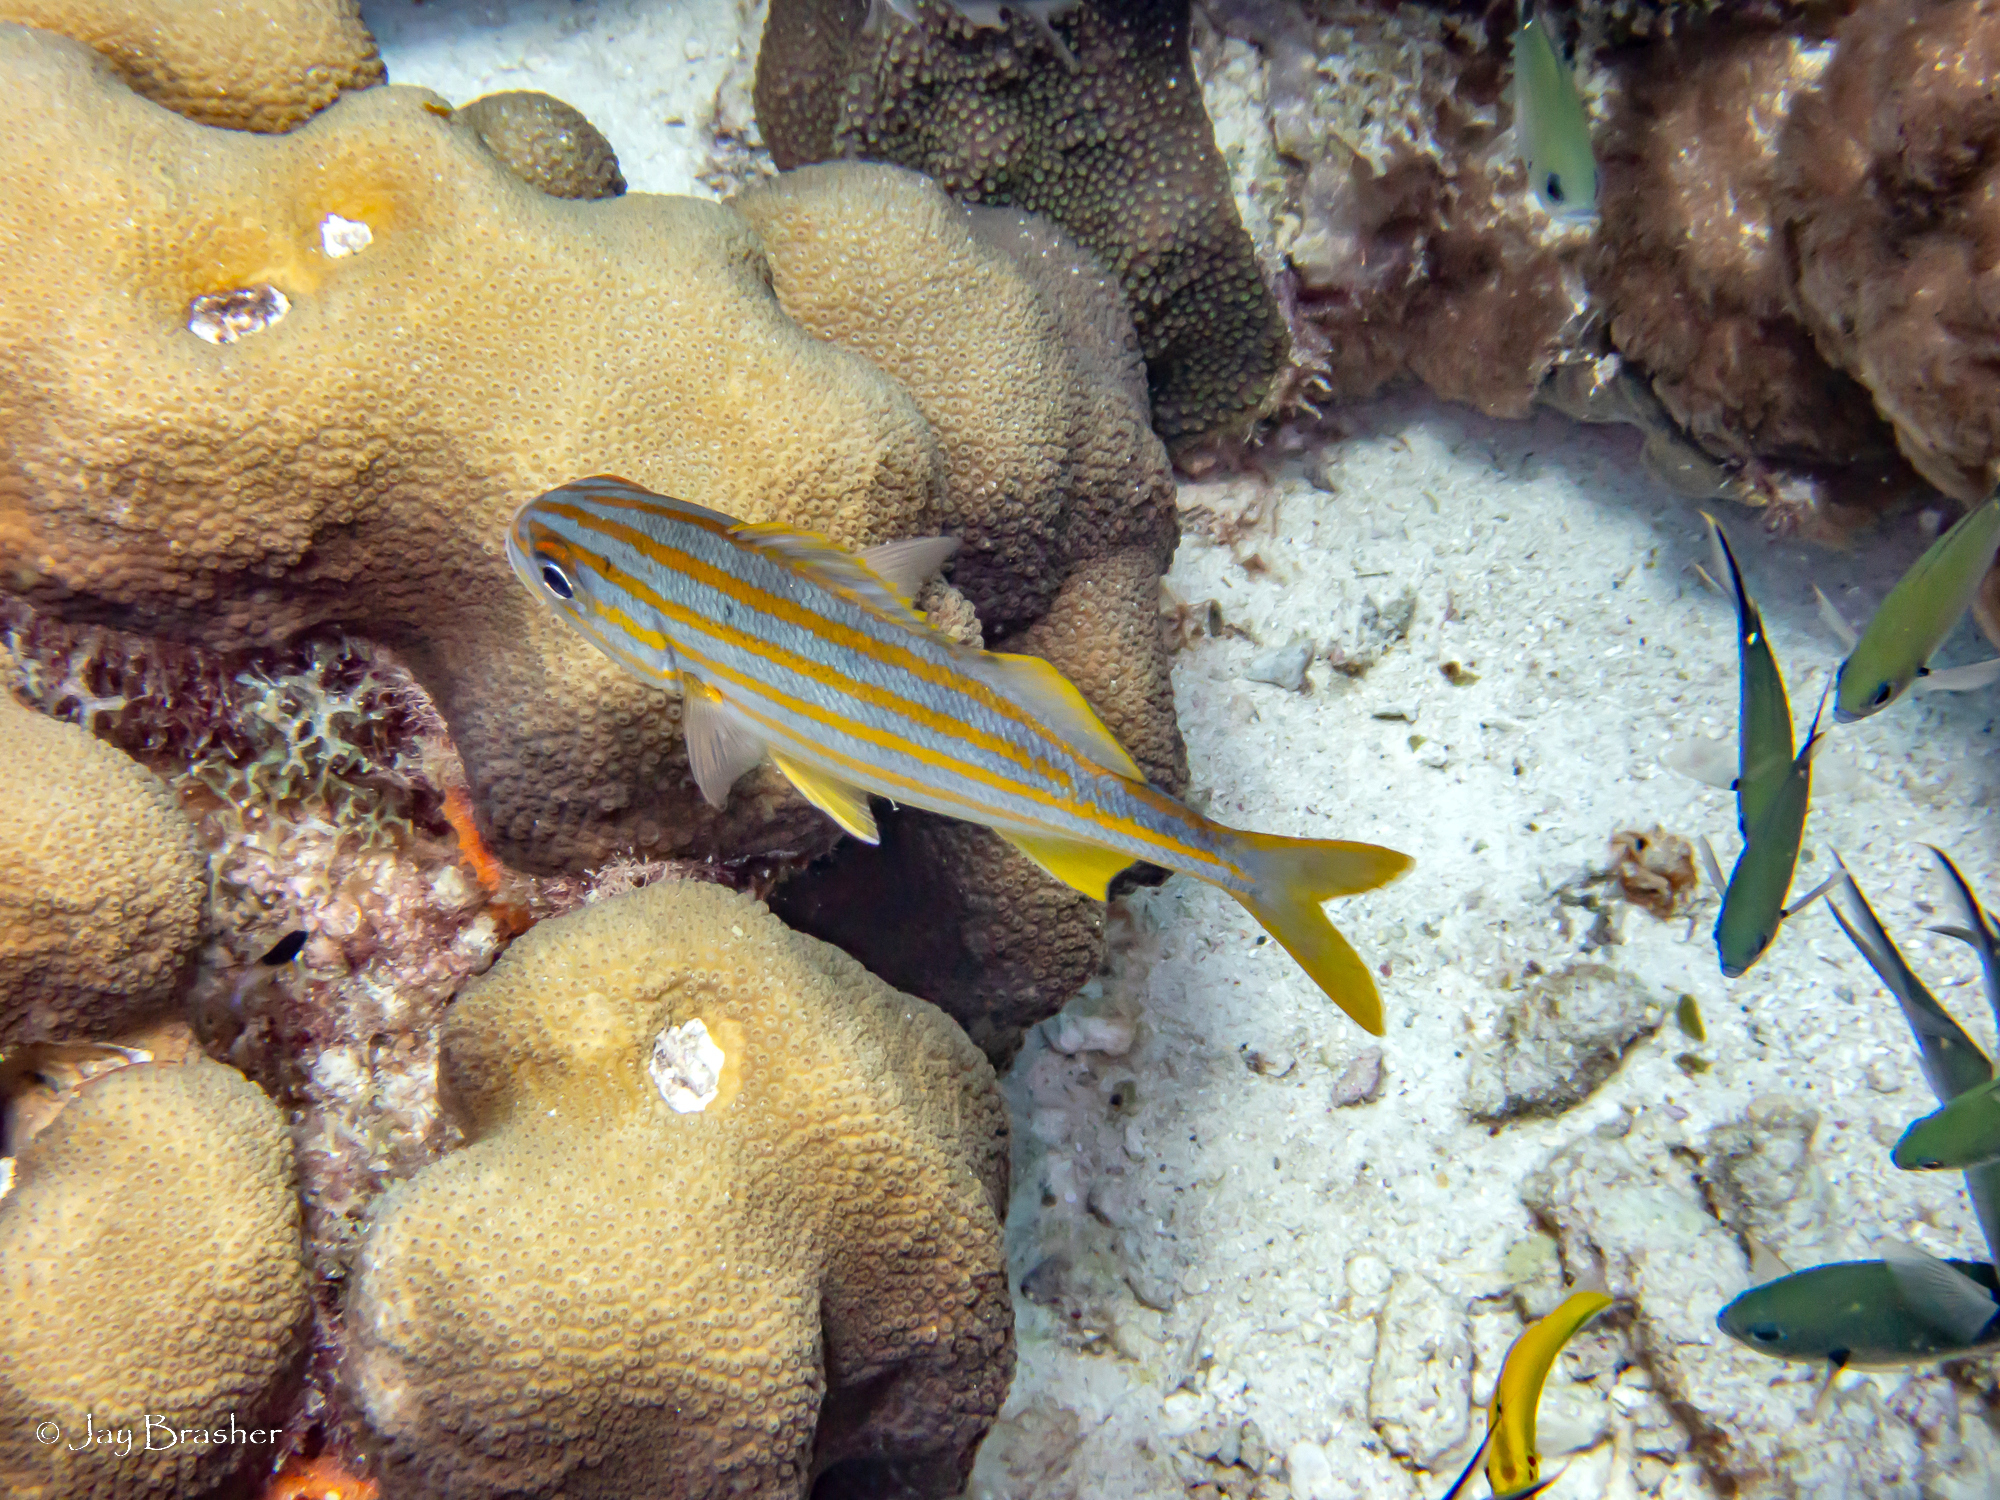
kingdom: Animalia
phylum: Cnidaria
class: Anthozoa
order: Scleralcyonacea
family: Erythropodiidae
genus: Erythropodium
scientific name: Erythropodium caribaeorum
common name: Encrusting gorgonian
